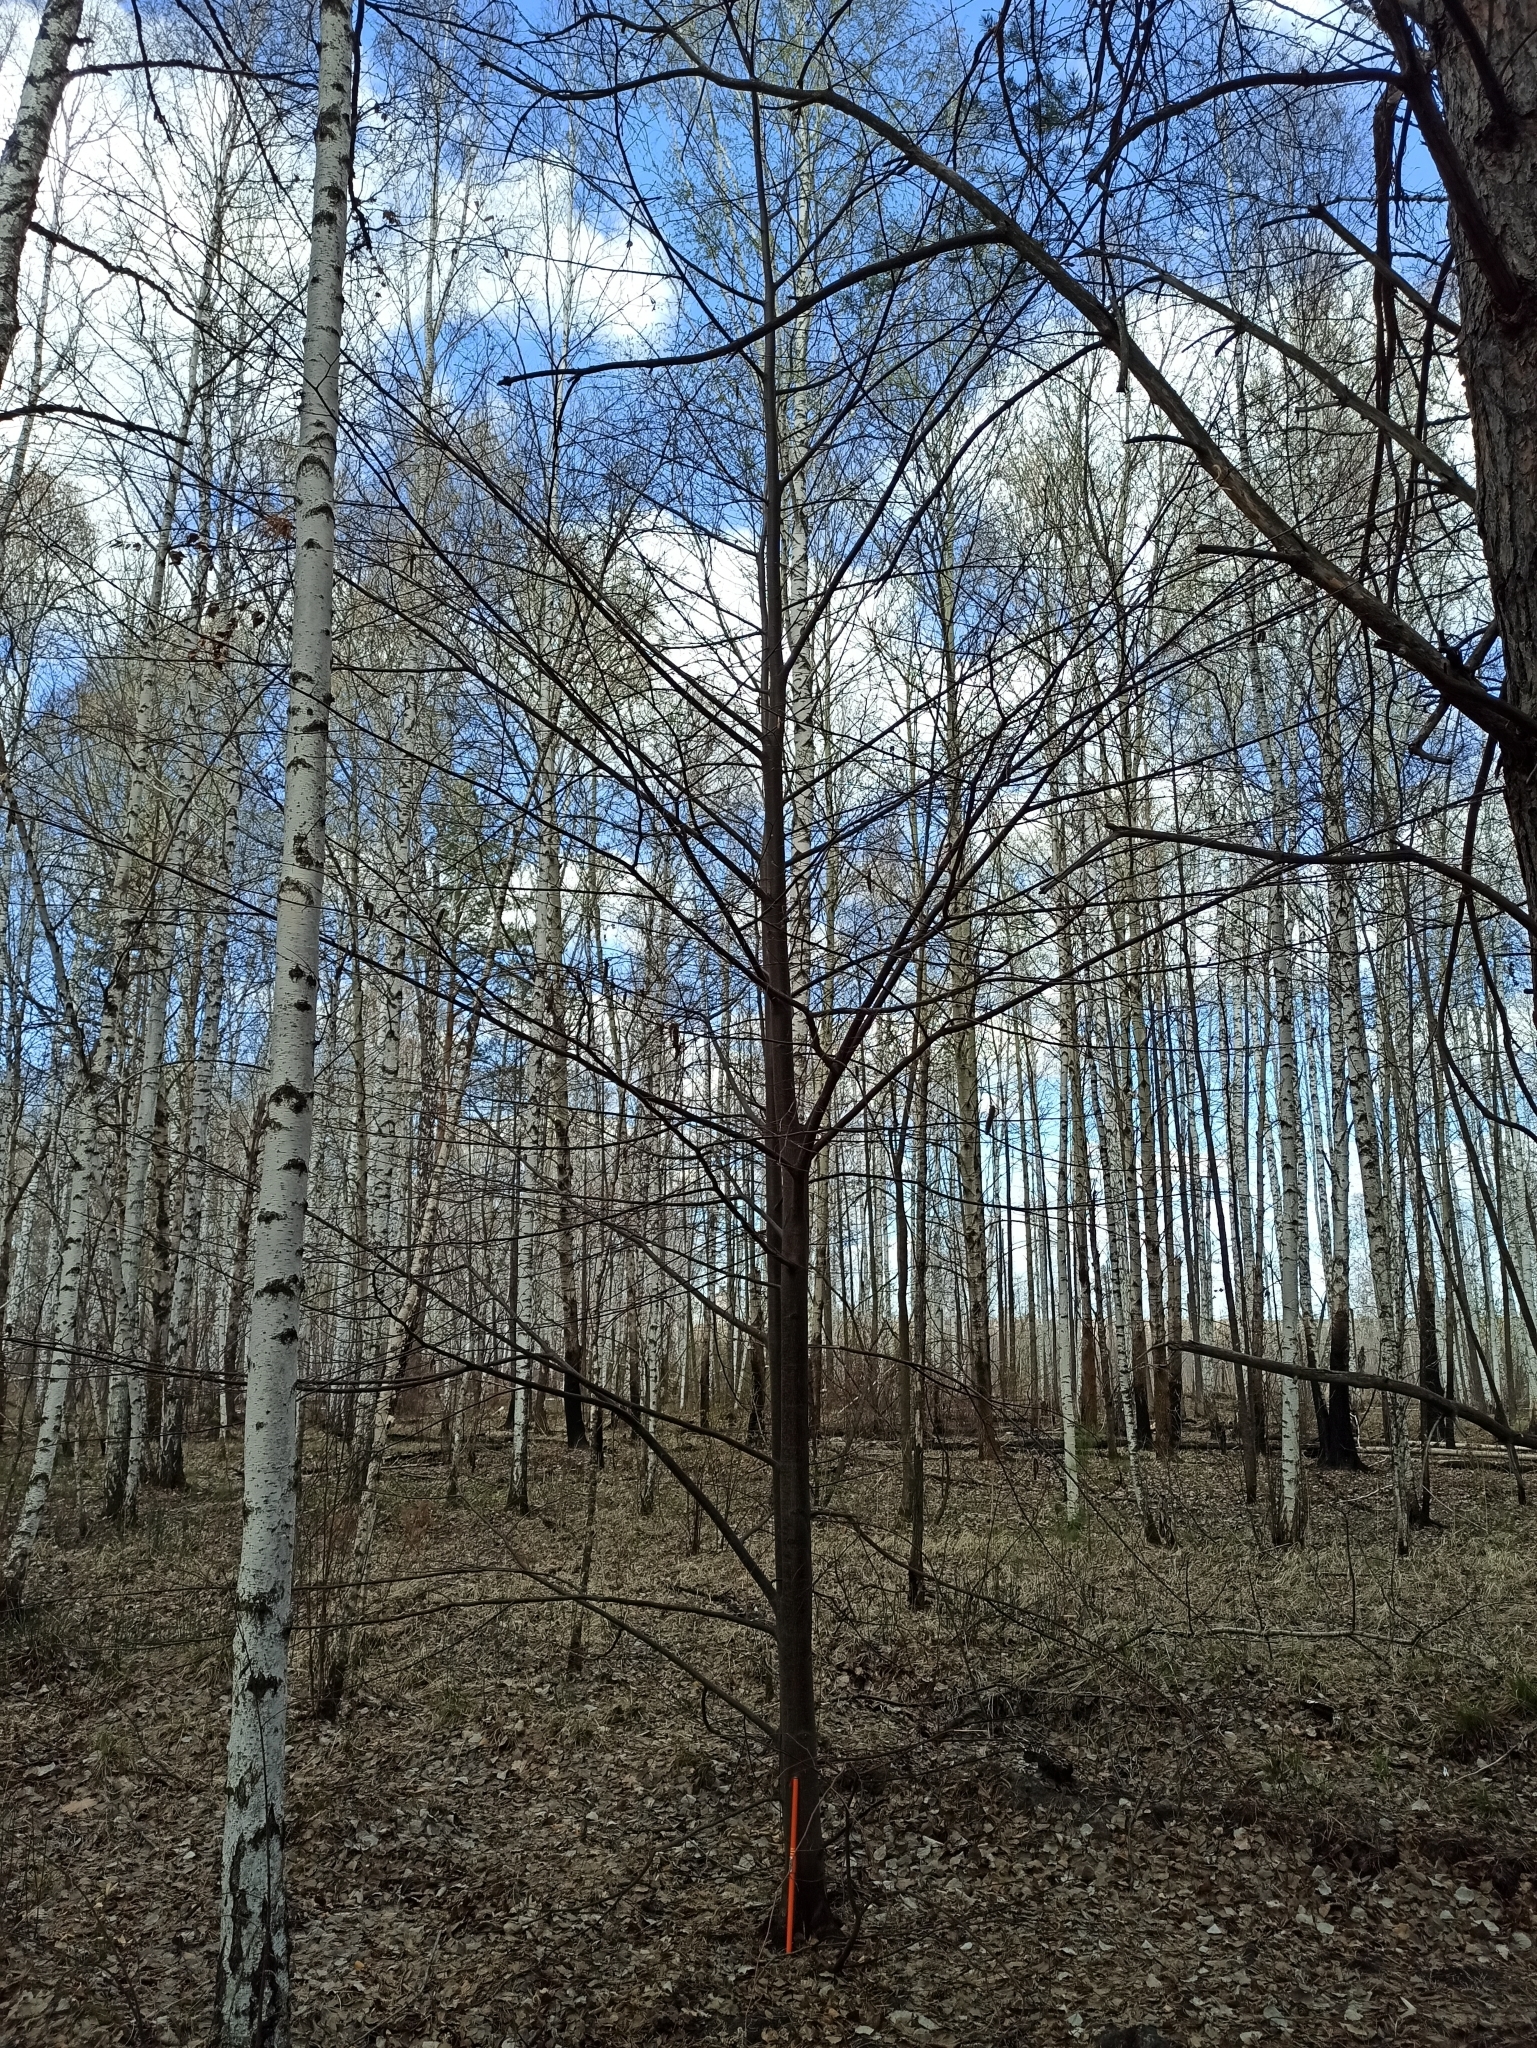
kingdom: Plantae
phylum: Tracheophyta
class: Magnoliopsida
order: Malvales
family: Malvaceae
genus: Tilia
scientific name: Tilia cordata
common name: Small-leaved lime
